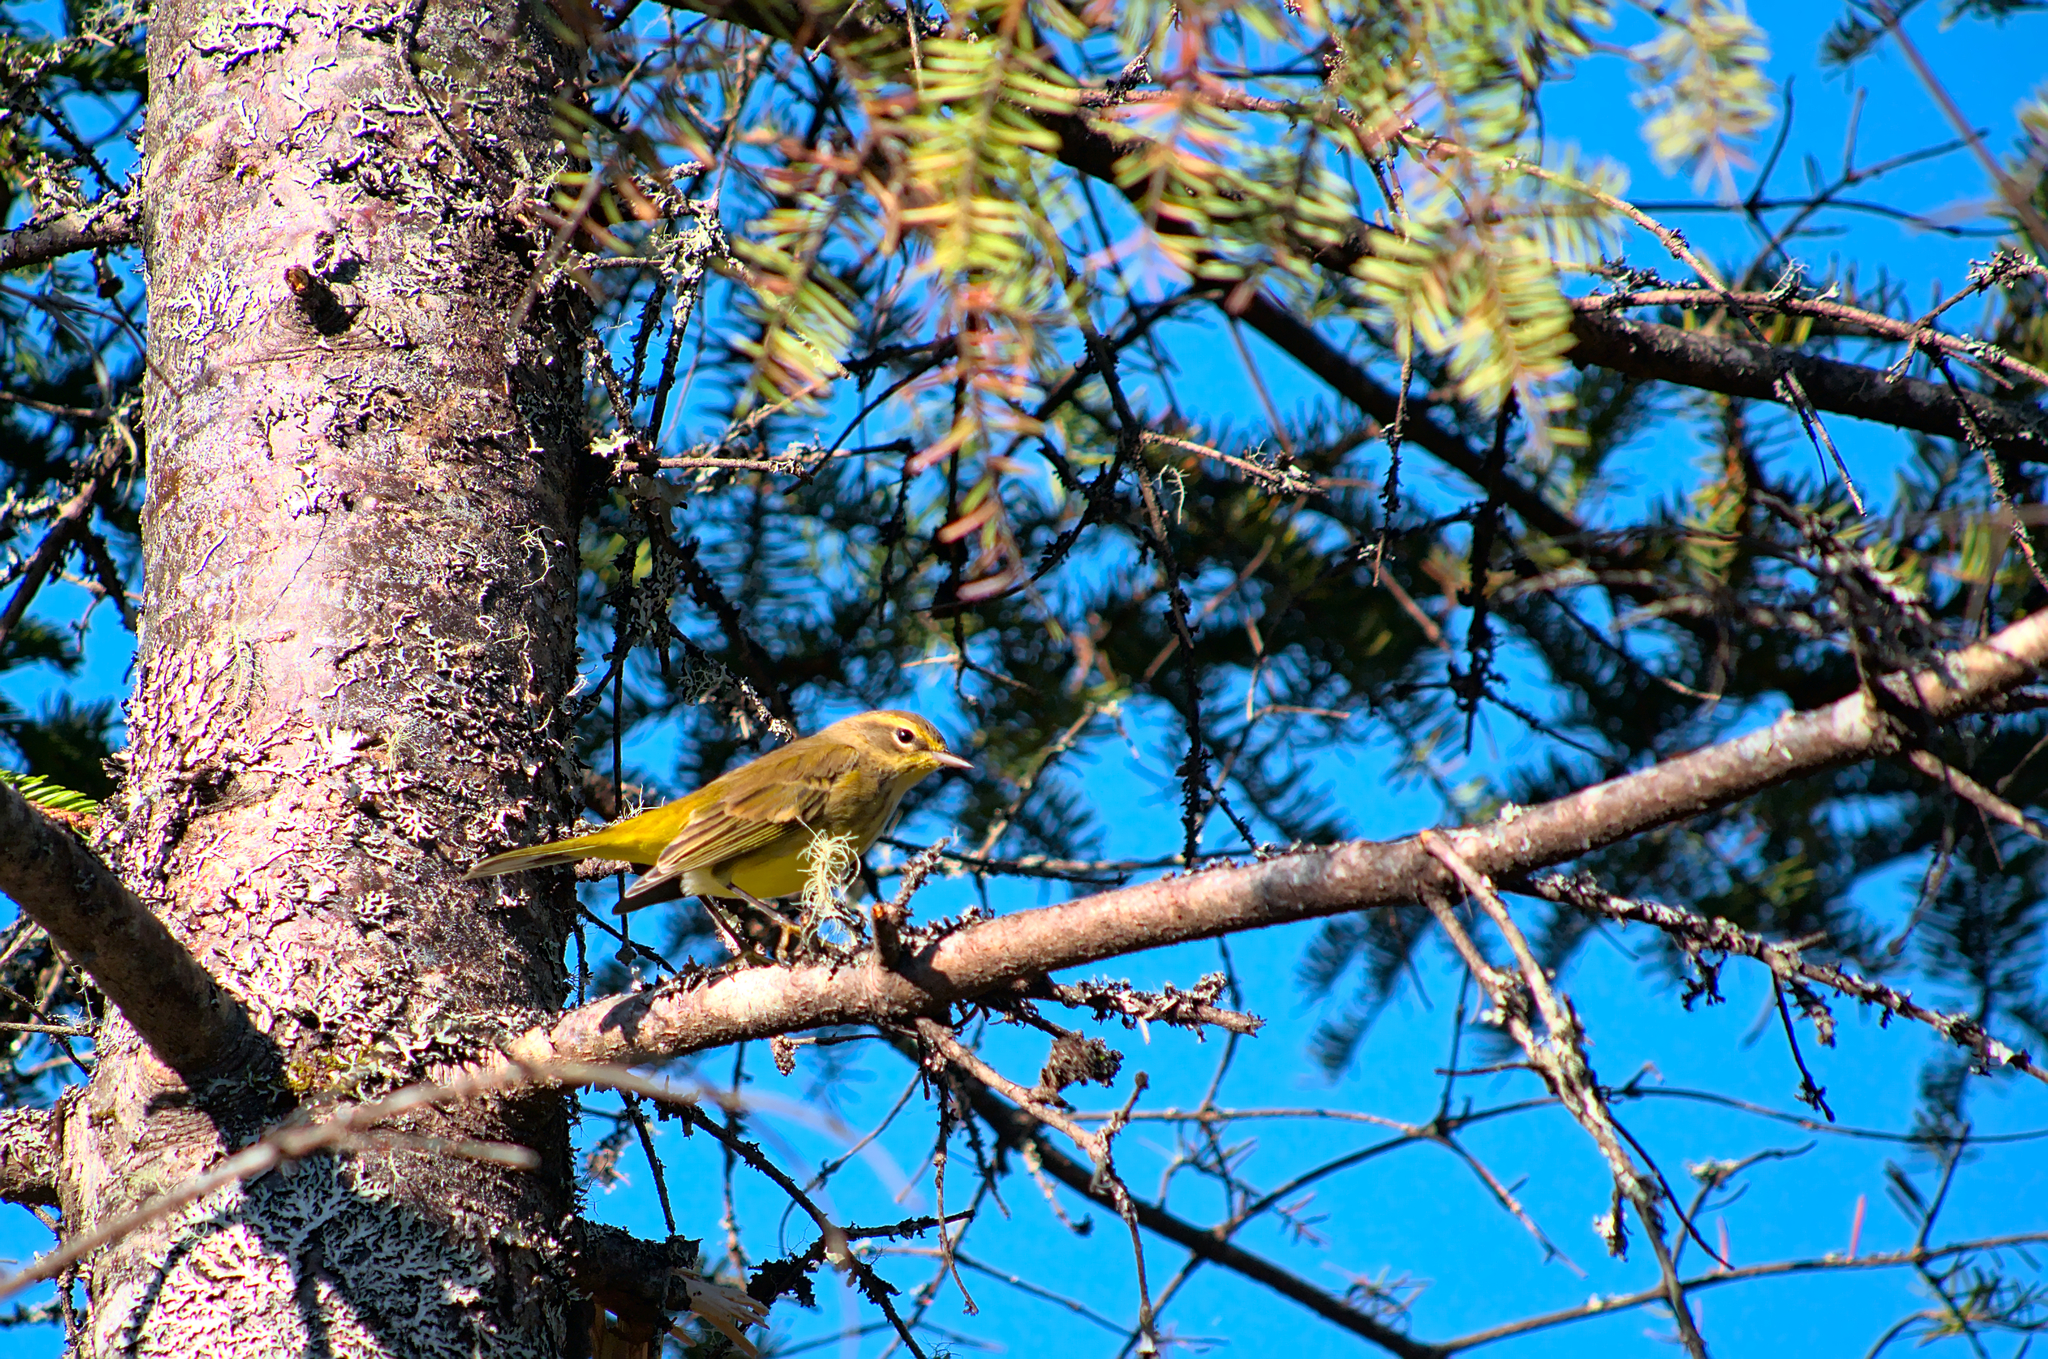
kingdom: Animalia
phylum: Chordata
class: Aves
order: Passeriformes
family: Parulidae
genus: Setophaga
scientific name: Setophaga palmarum
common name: Palm warbler
